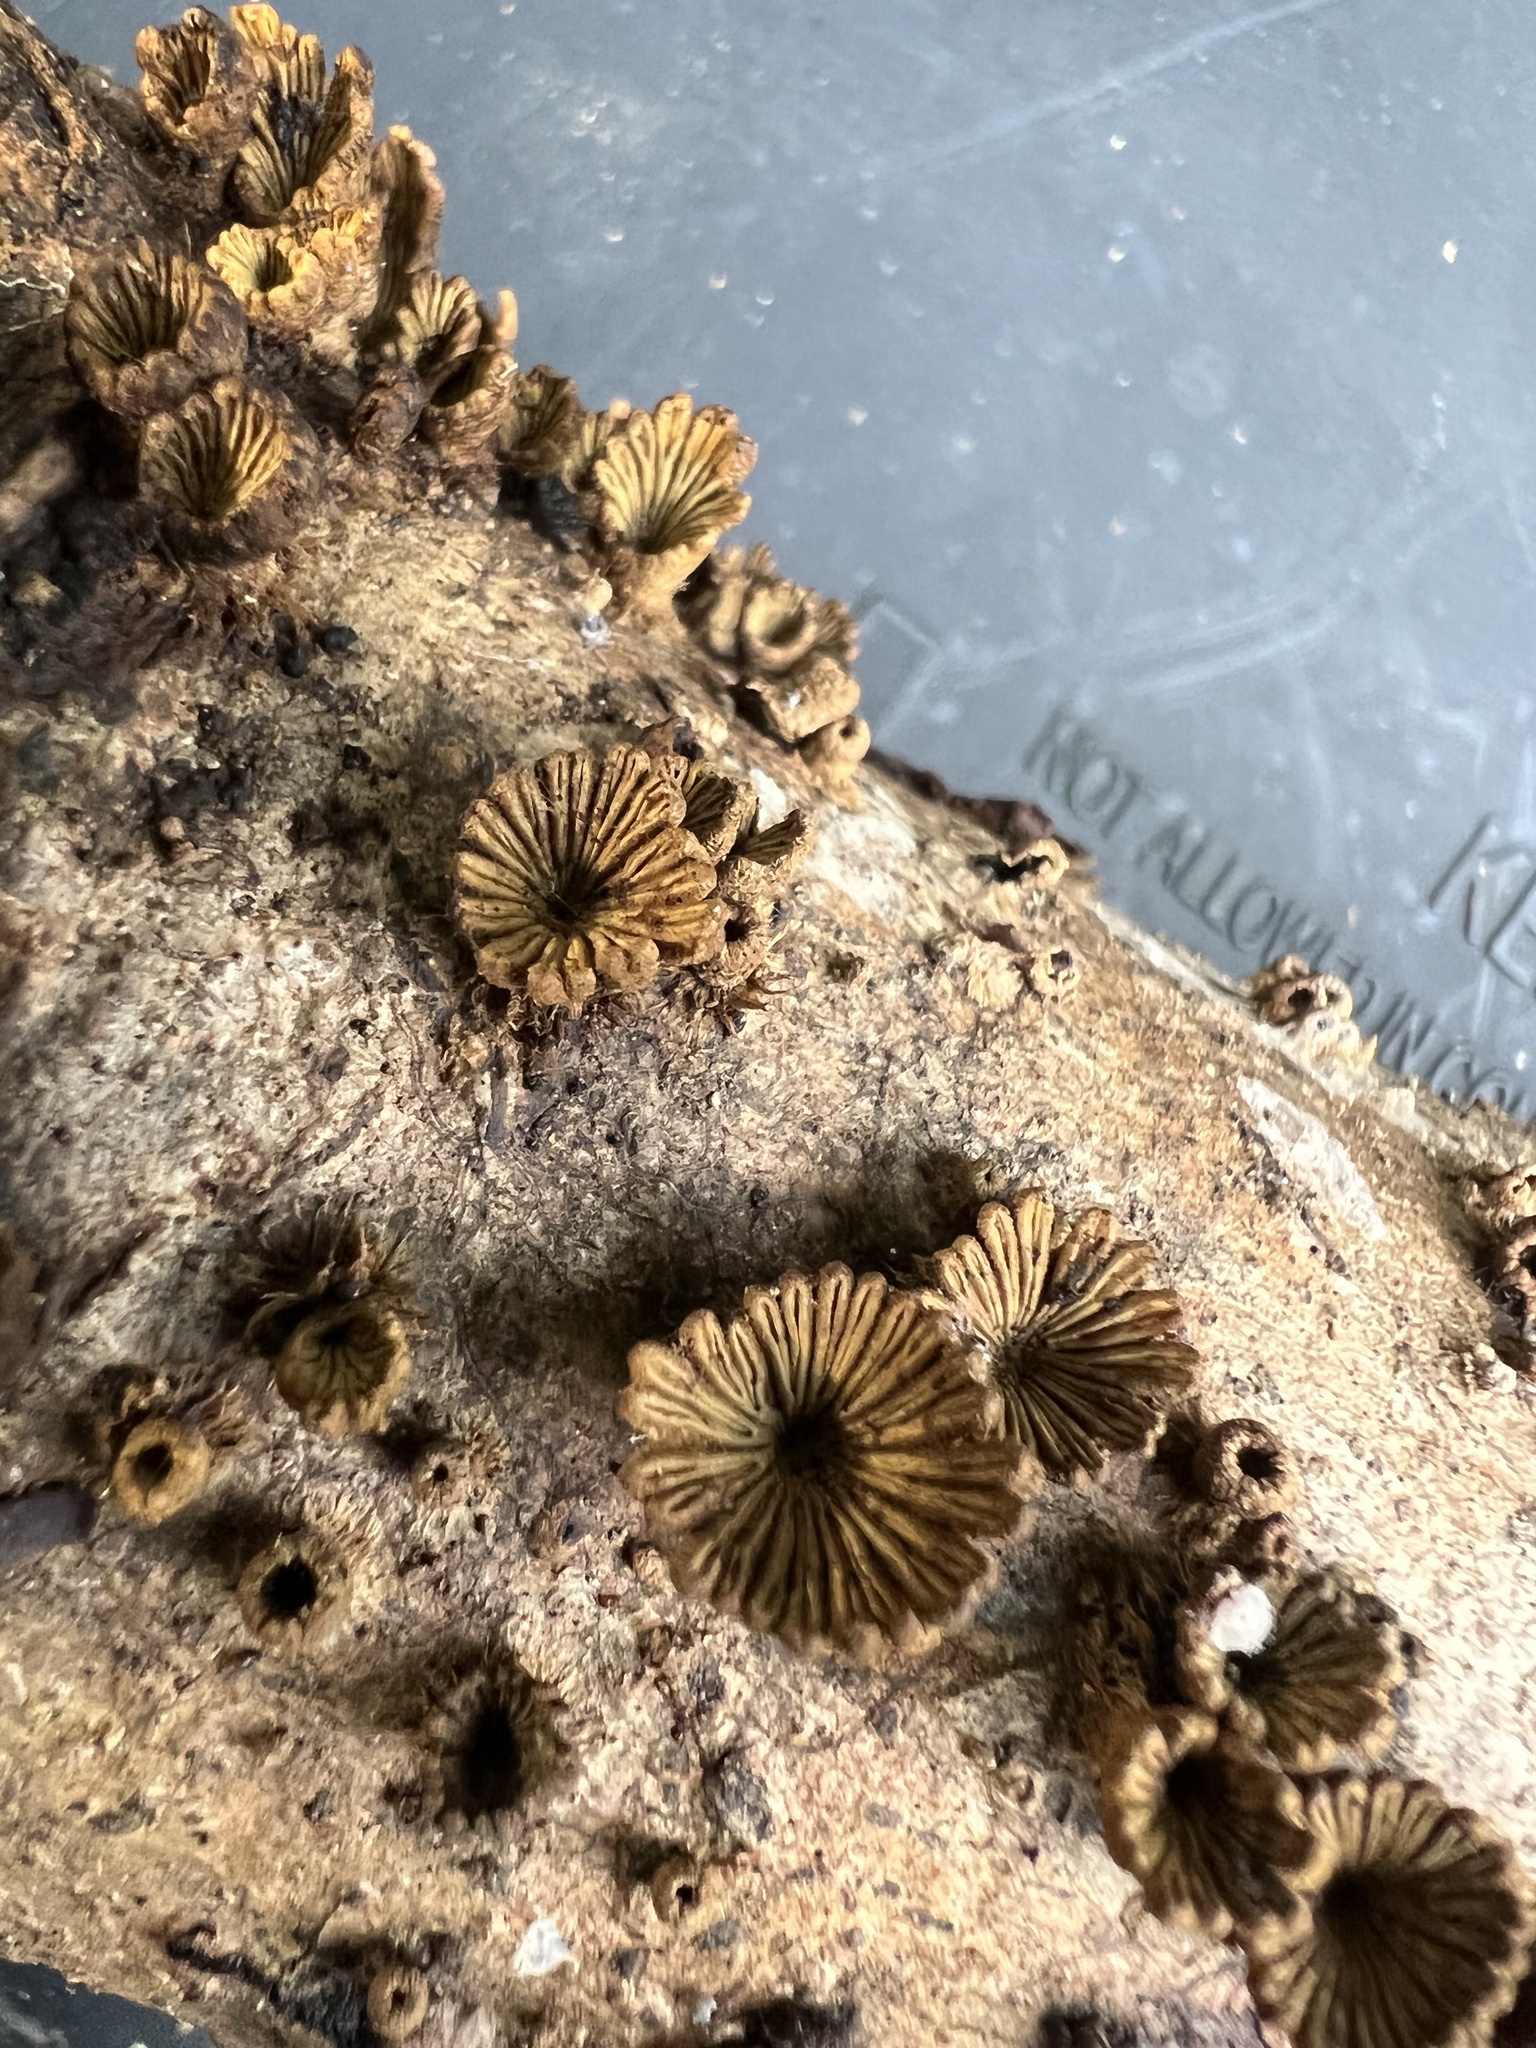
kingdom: Fungi
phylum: Basidiomycota
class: Agaricomycetes
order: Agaricales
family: Schizophyllaceae
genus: Schizophyllum
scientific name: Schizophyllum umbrinum
